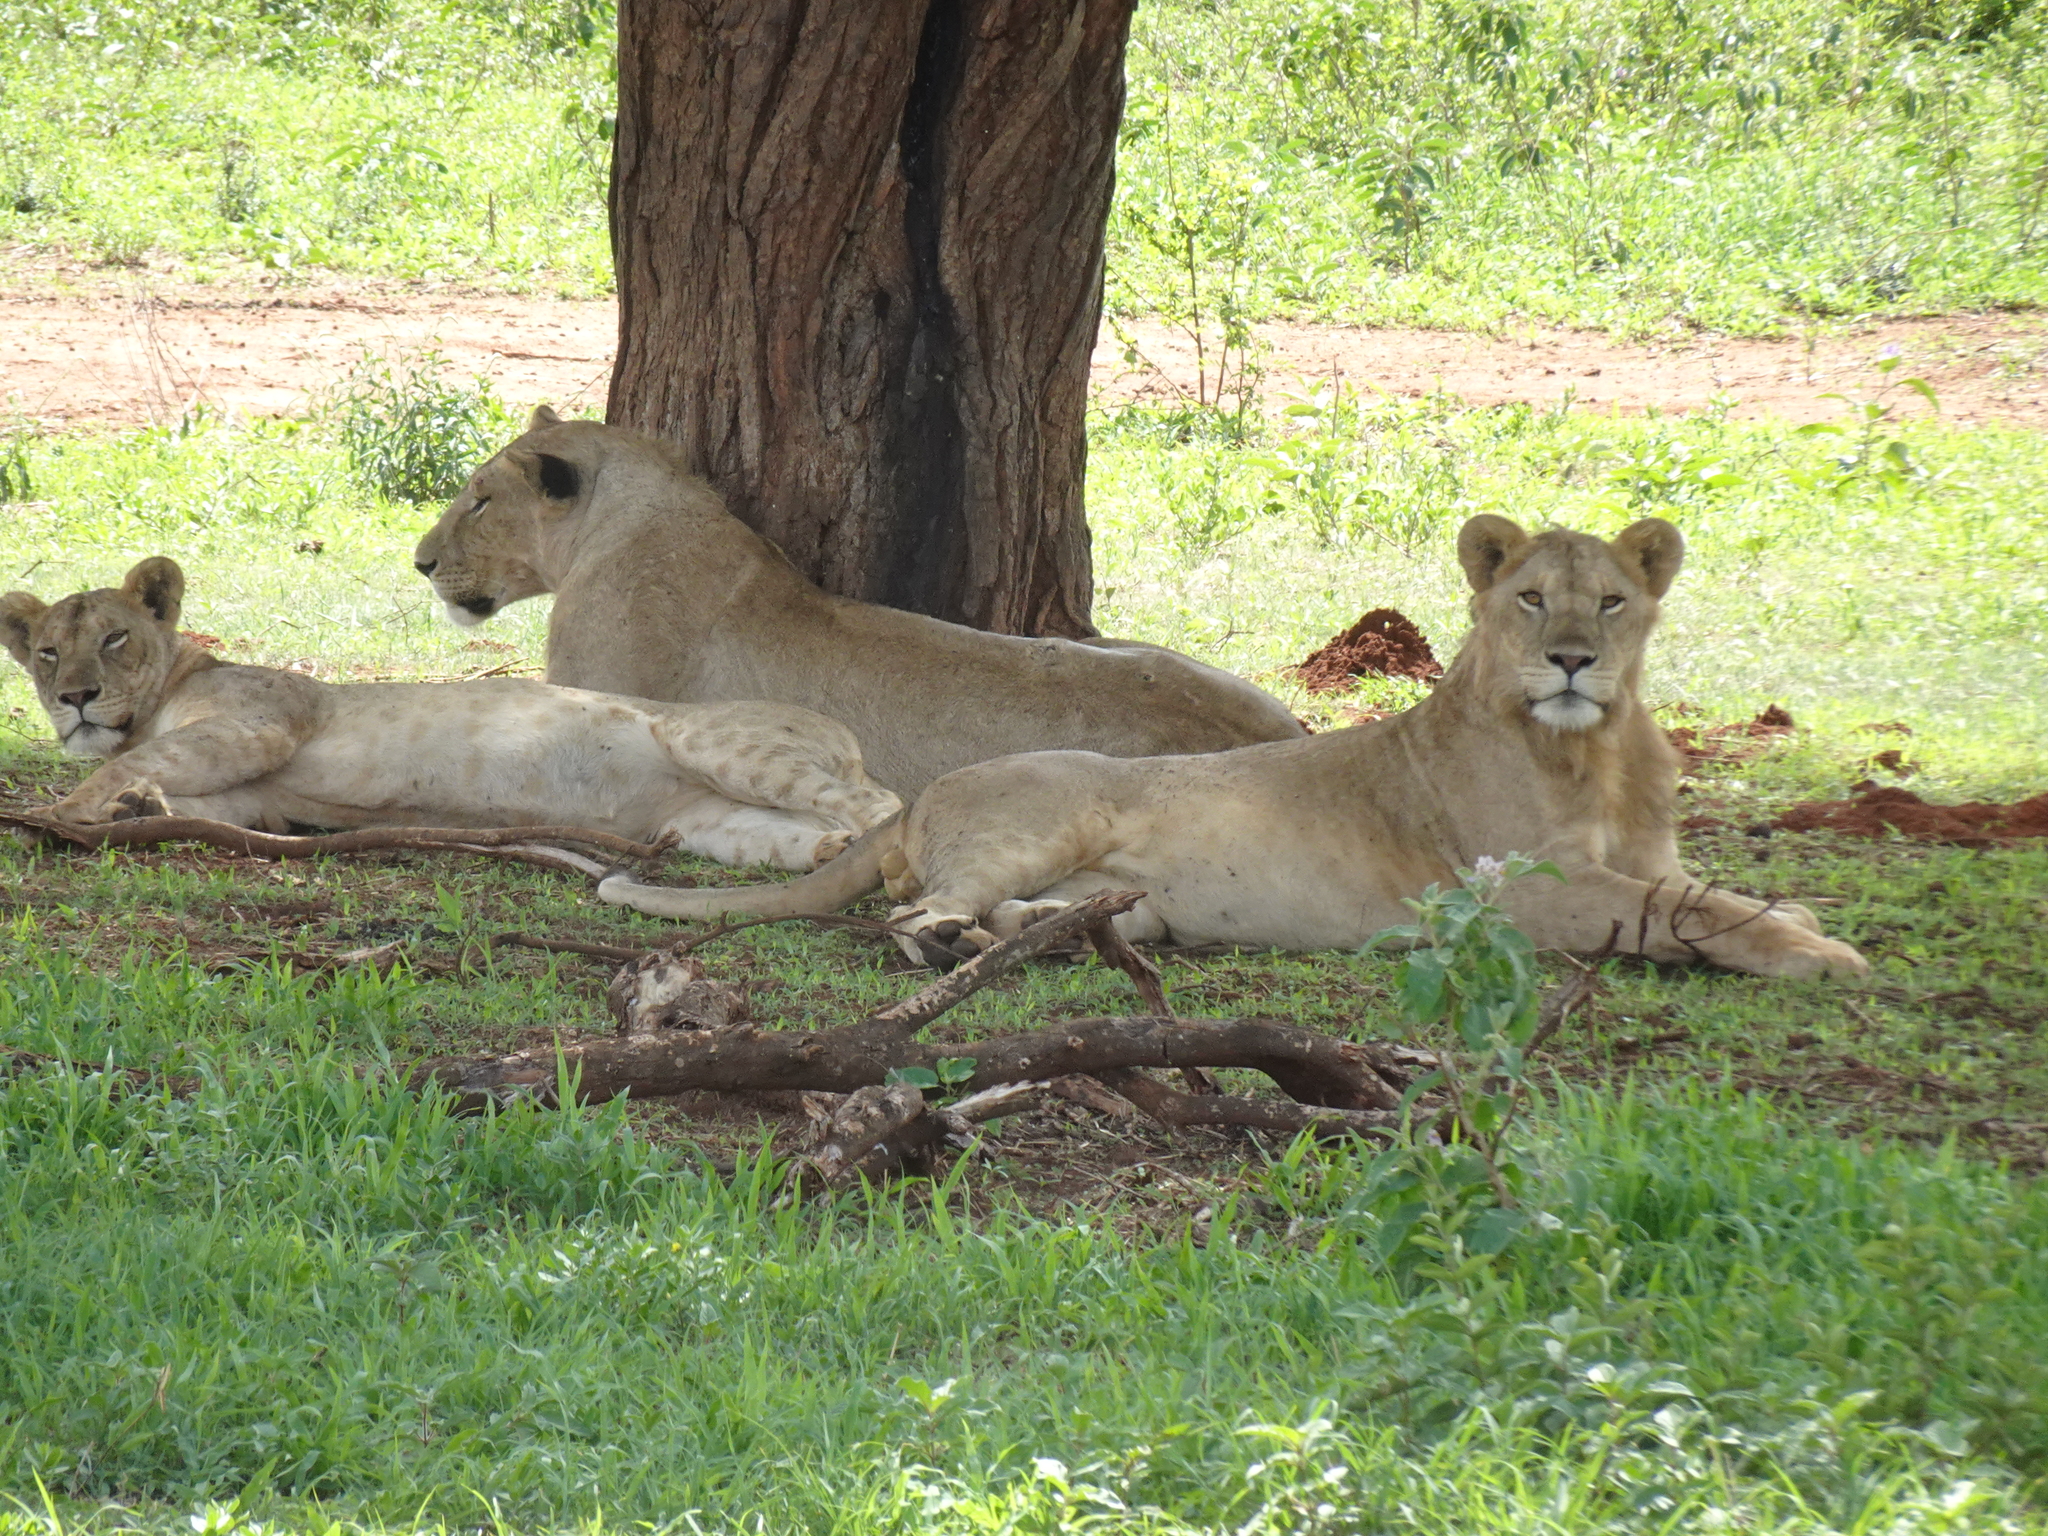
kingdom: Animalia
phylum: Chordata
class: Mammalia
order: Carnivora
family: Felidae
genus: Panthera
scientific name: Panthera leo
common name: Lion
